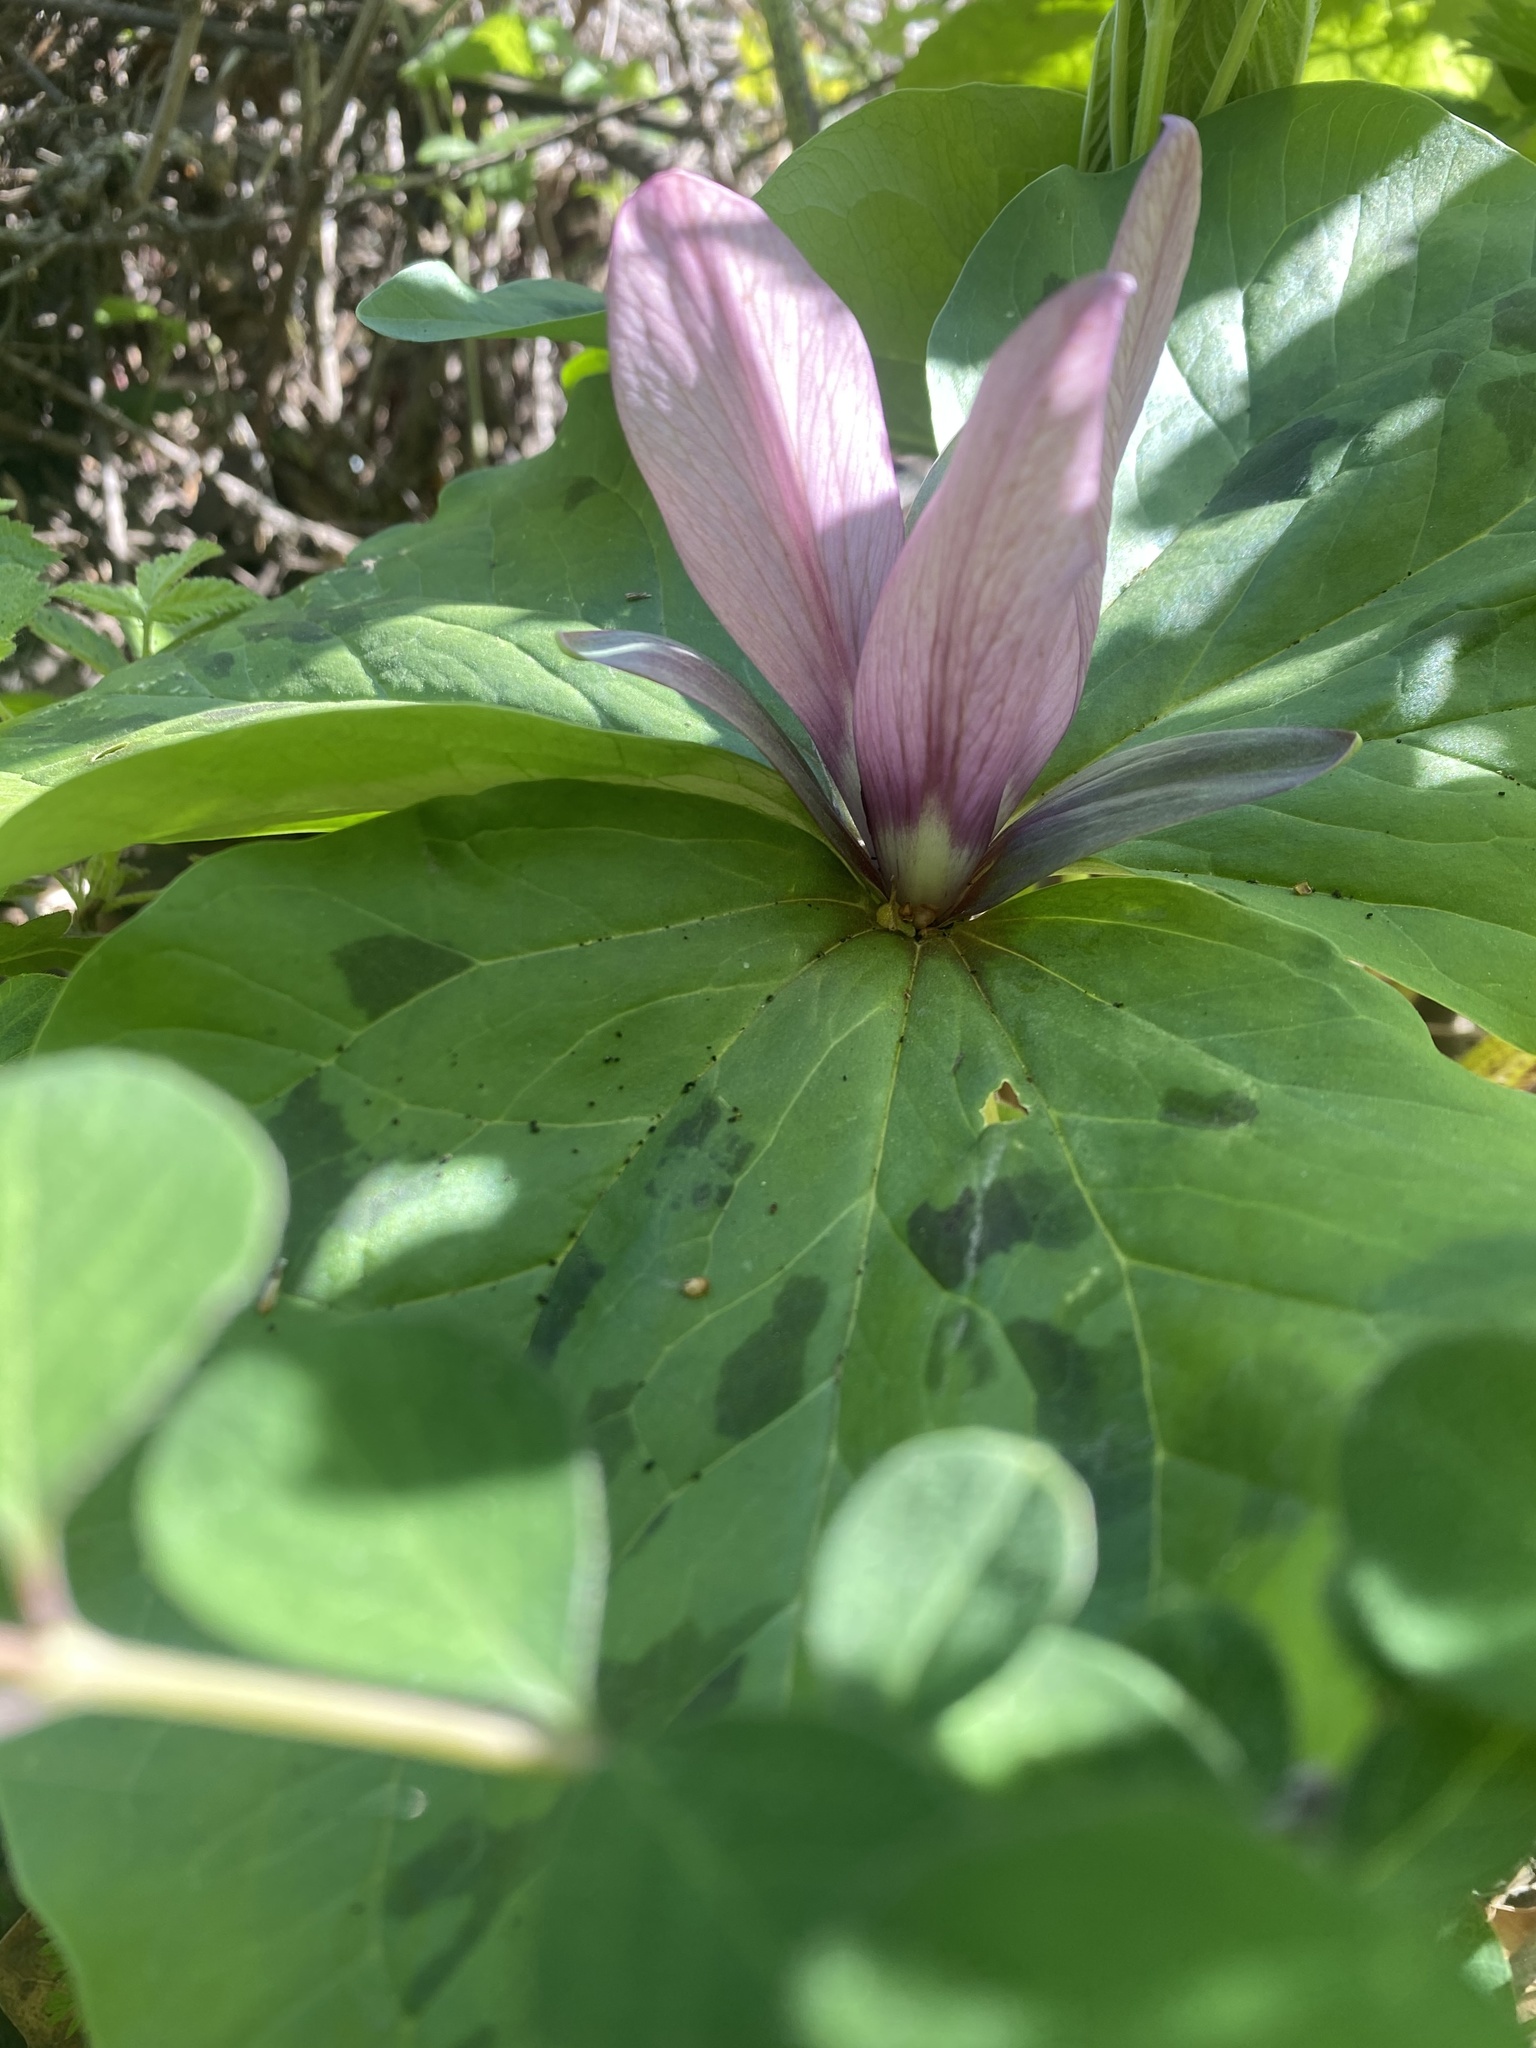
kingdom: Plantae
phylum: Tracheophyta
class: Liliopsida
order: Liliales
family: Melanthiaceae
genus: Trillium
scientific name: Trillium chloropetalum
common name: Giant trillium
